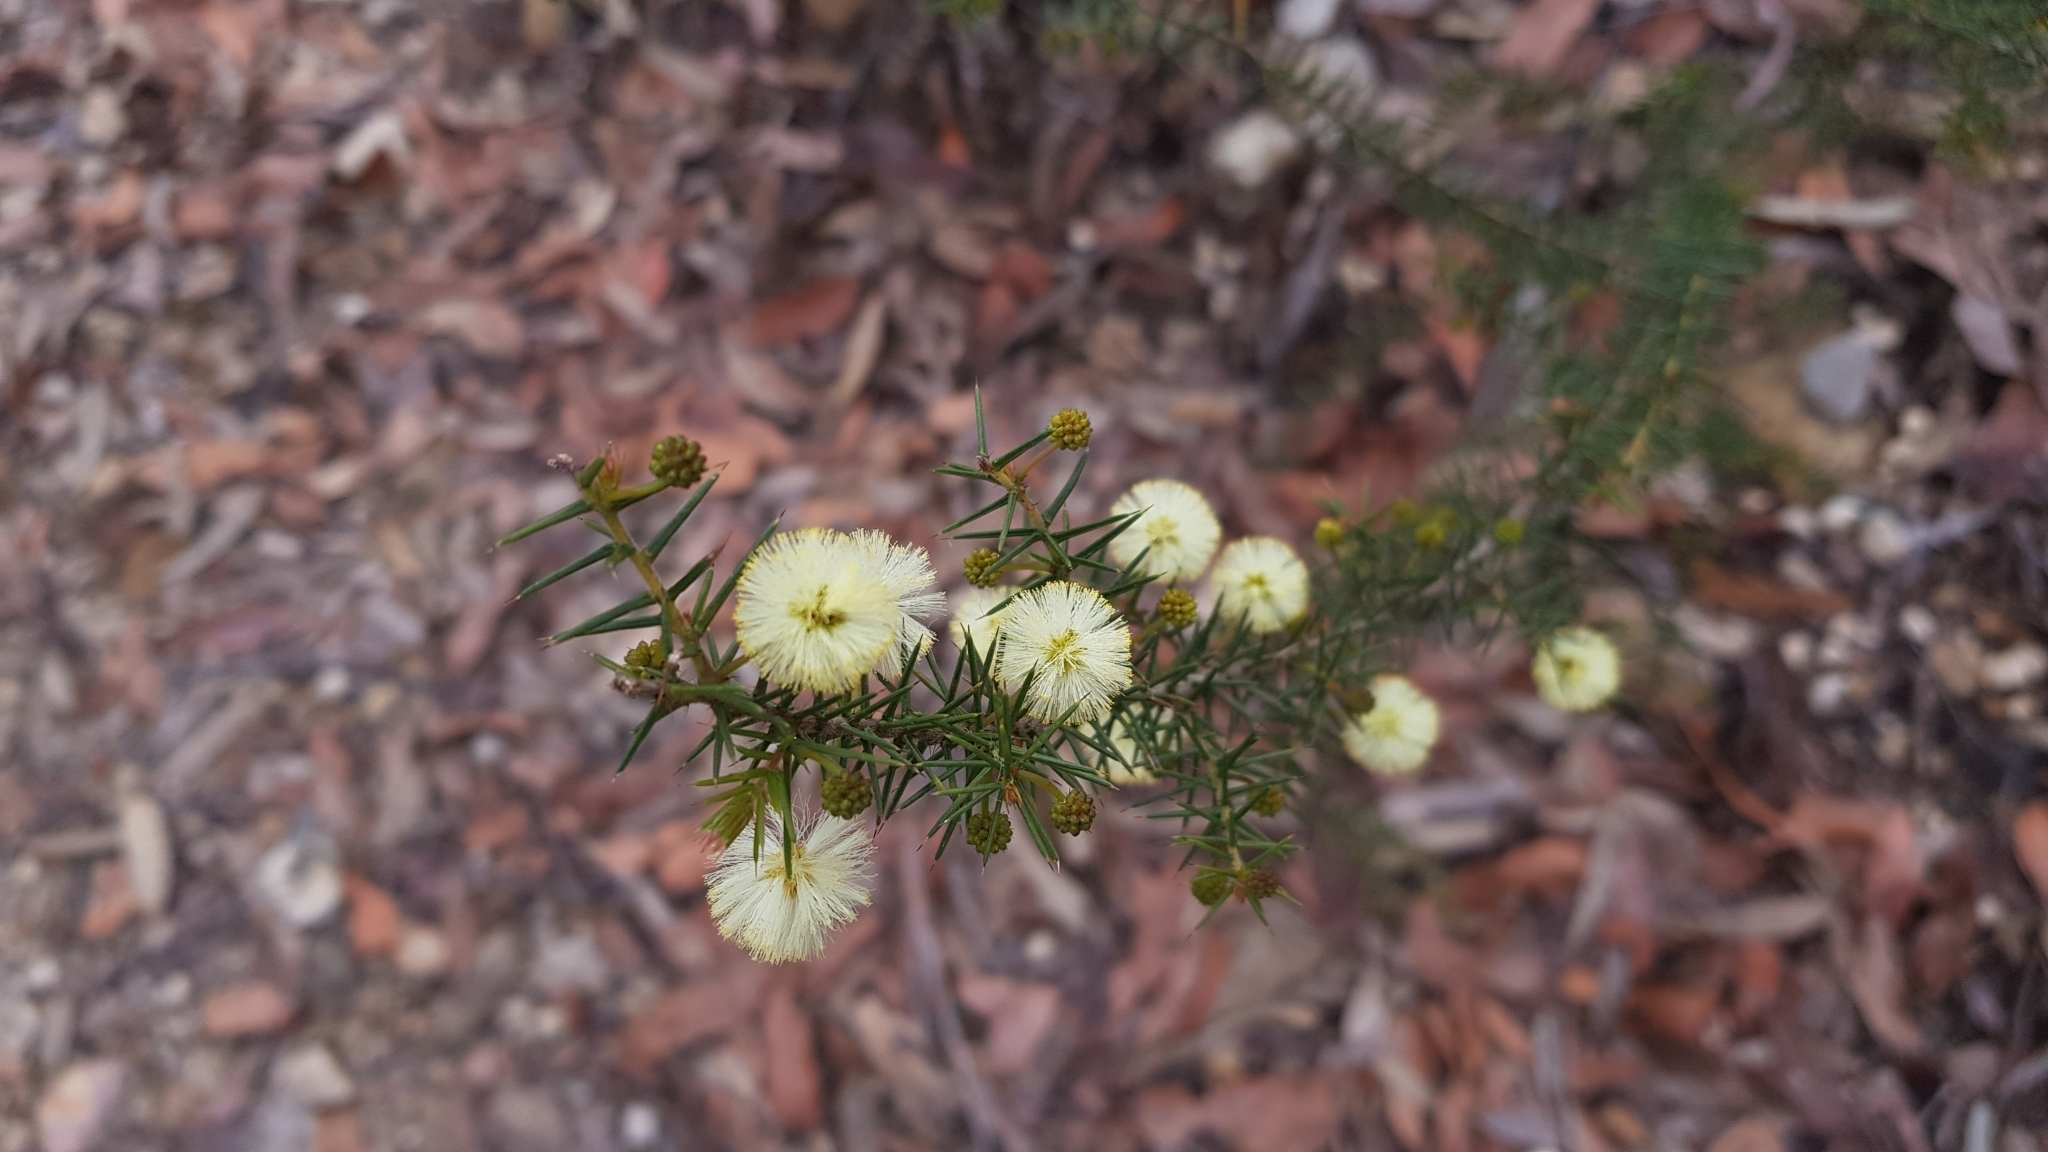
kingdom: Plantae
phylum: Tracheophyta
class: Magnoliopsida
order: Fabales
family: Fabaceae
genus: Acacia
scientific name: Acacia ulicifolia
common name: Juniper wattle
